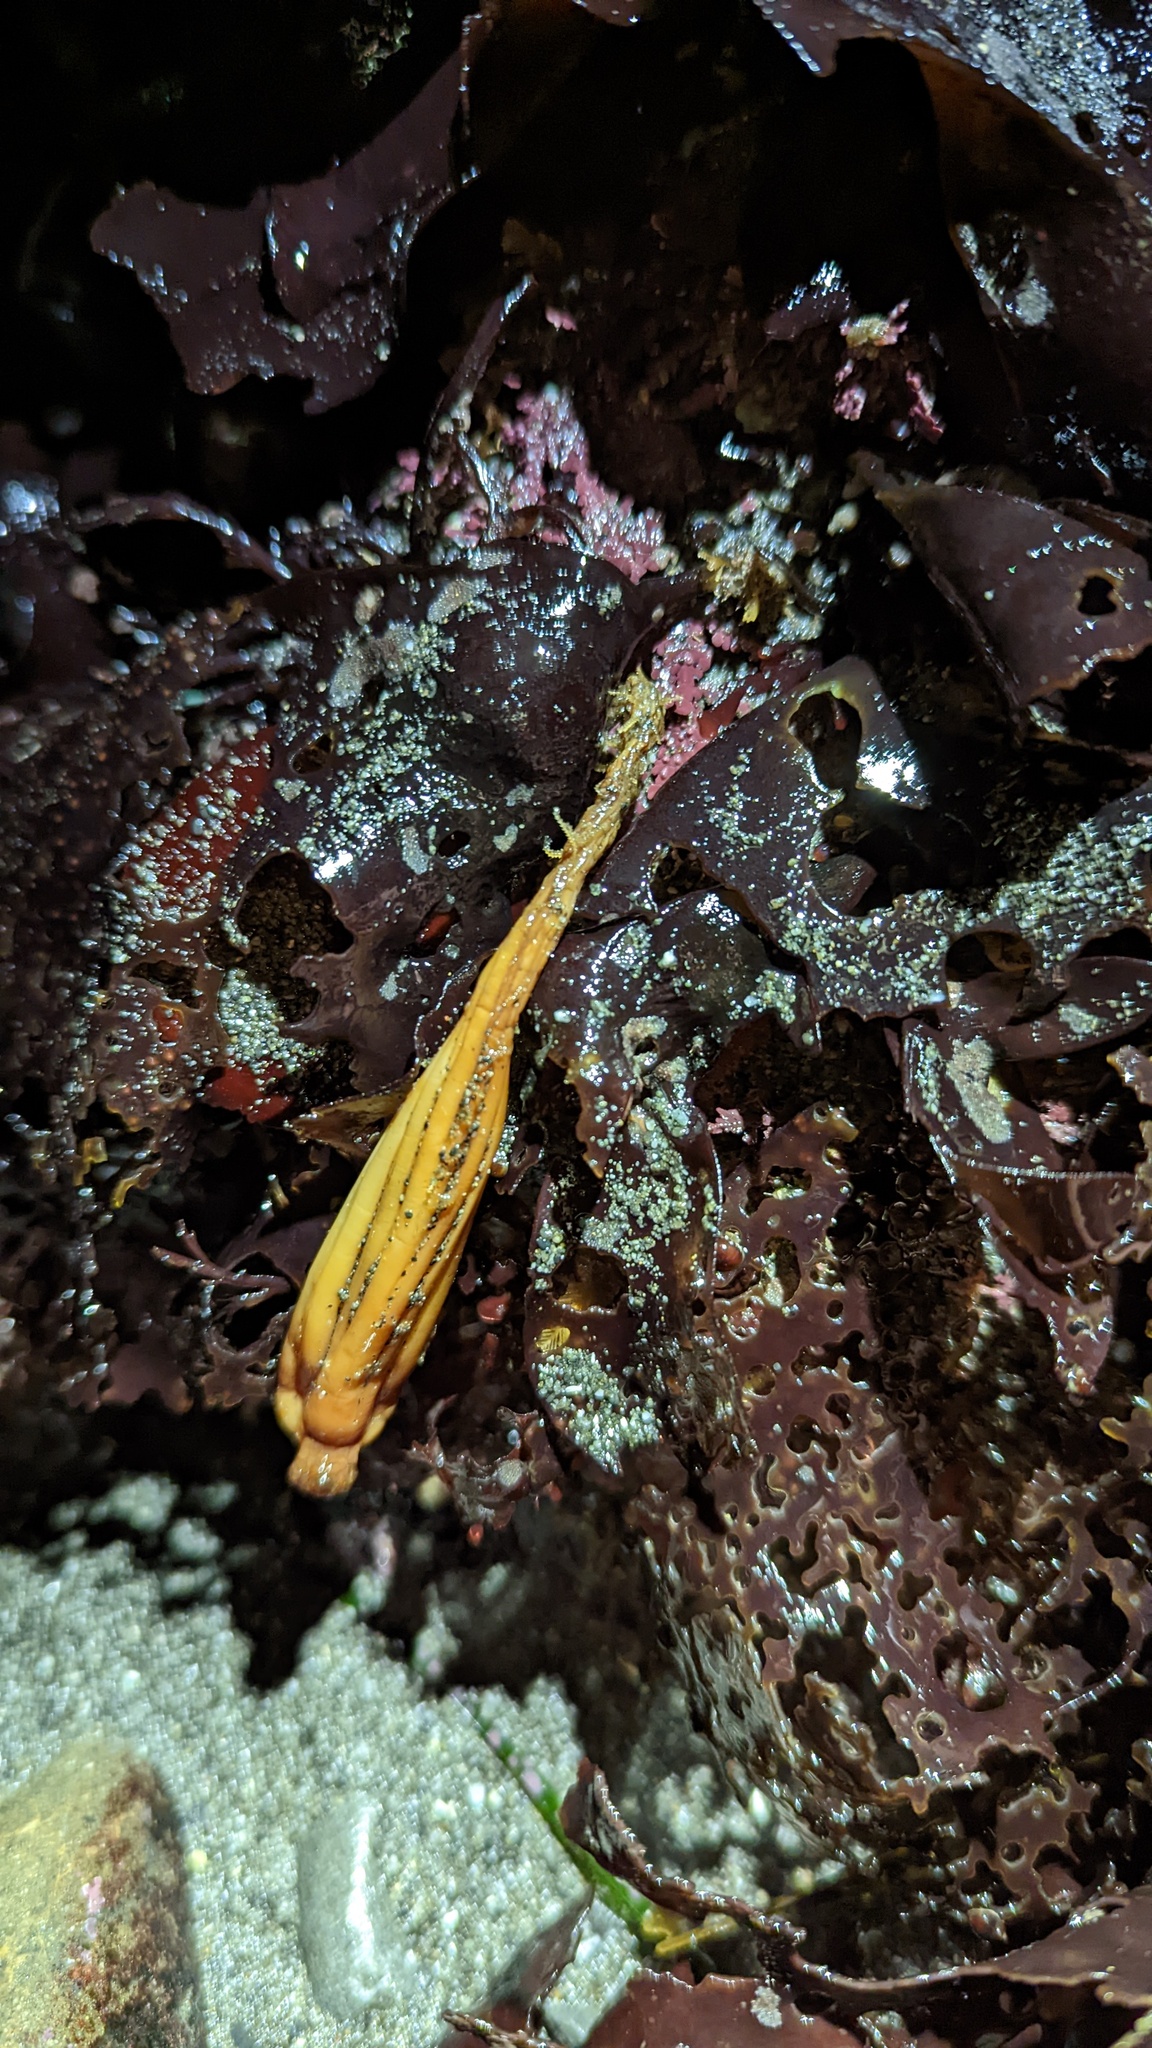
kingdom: Animalia
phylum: Chordata
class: Ascidiacea
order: Stolidobranchia
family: Styelidae
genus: Styela
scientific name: Styela montereyensis
